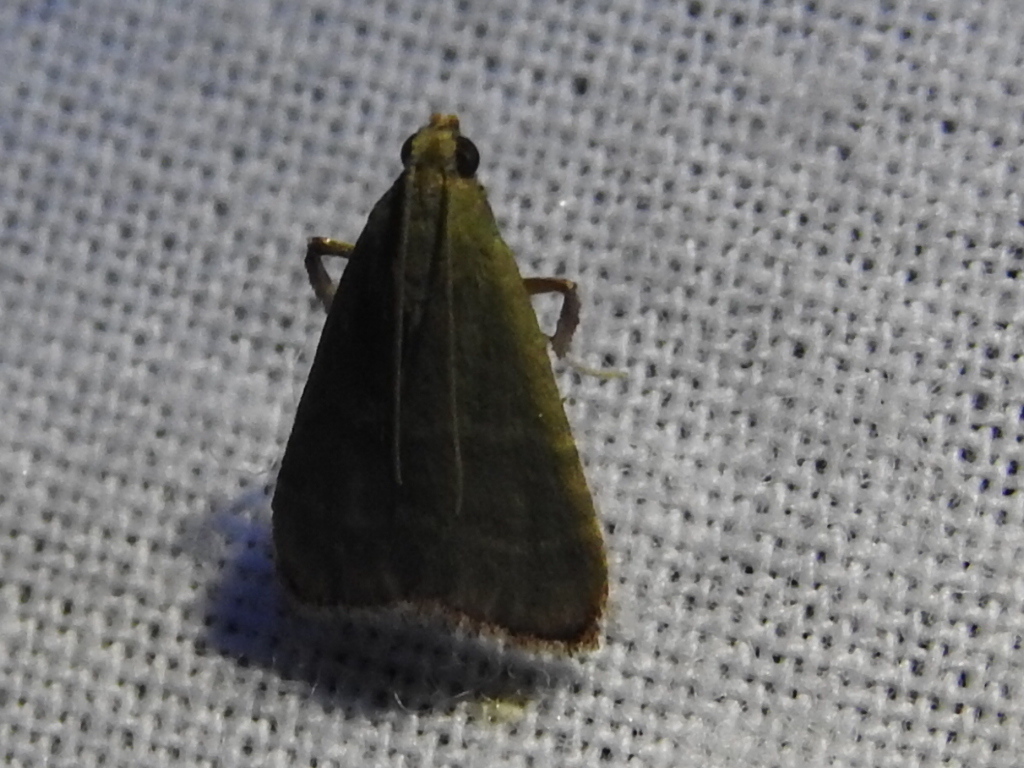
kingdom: Animalia
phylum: Arthropoda
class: Insecta
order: Lepidoptera
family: Pyralidae
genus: Arta
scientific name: Arta olivalis
